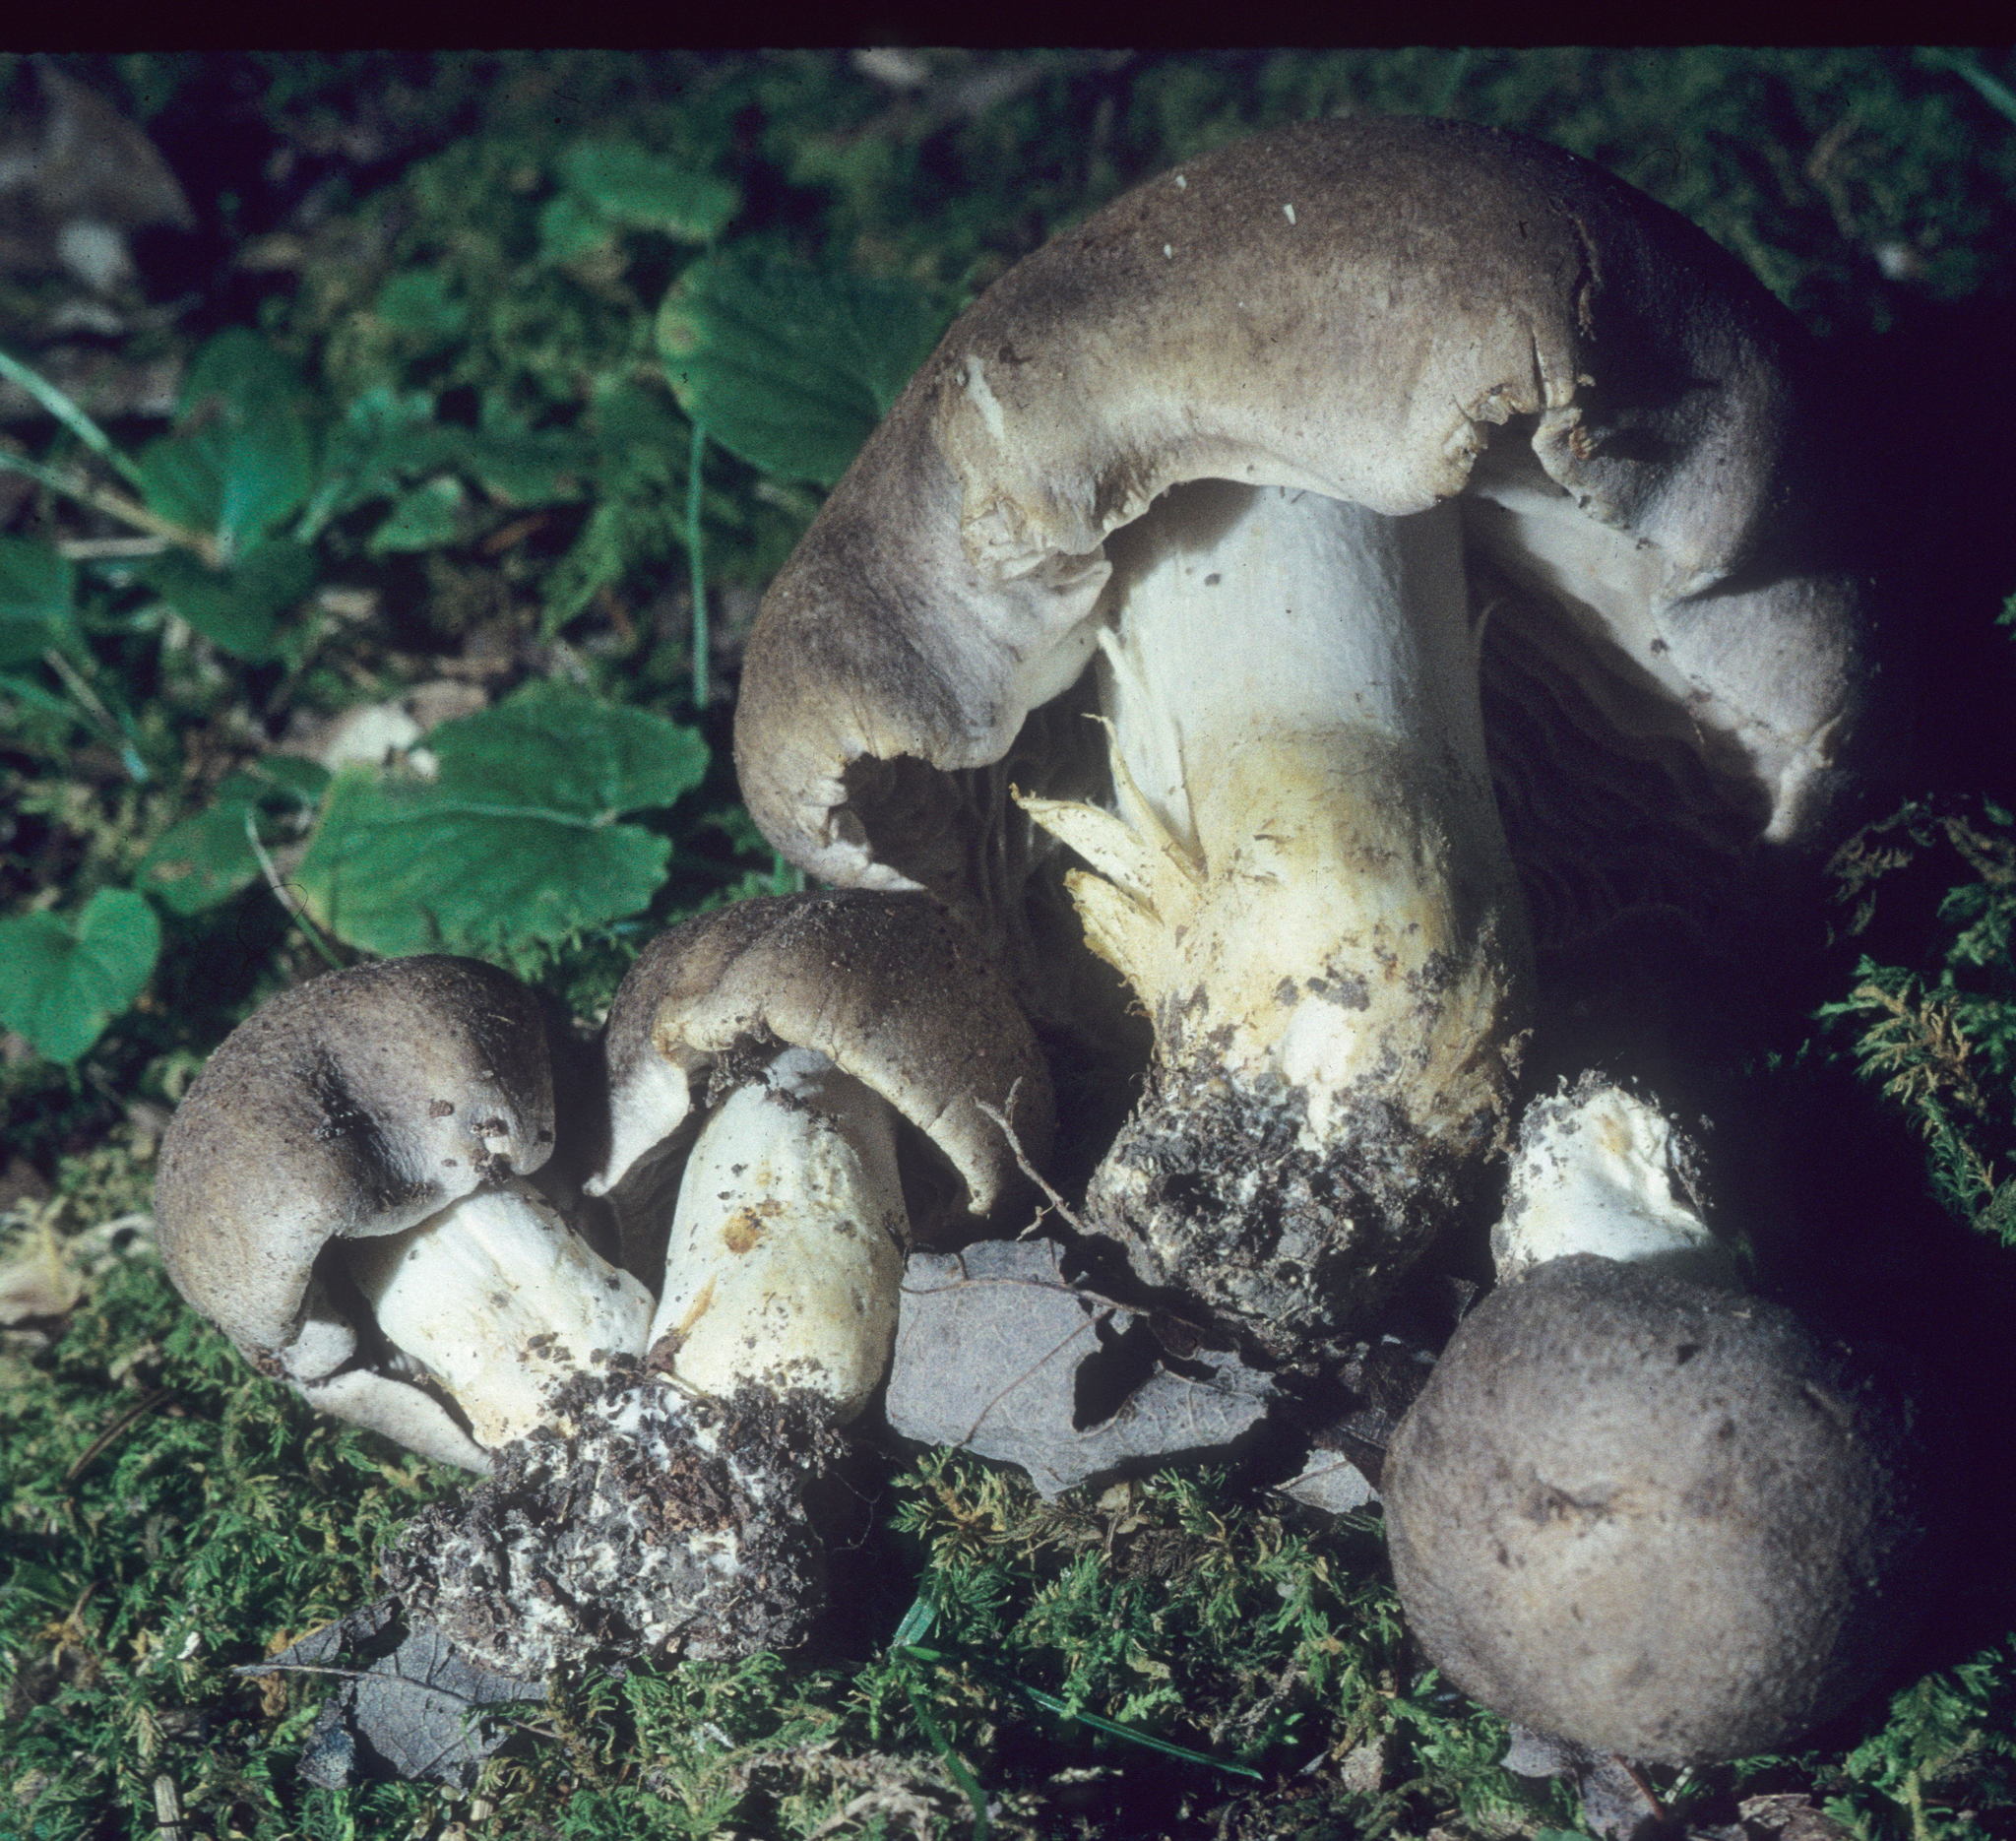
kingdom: Fungi
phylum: Basidiomycota
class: Agaricomycetes
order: Agaricales
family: Tricholomataceae
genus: Tricholoma
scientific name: Tricholoma pullum
